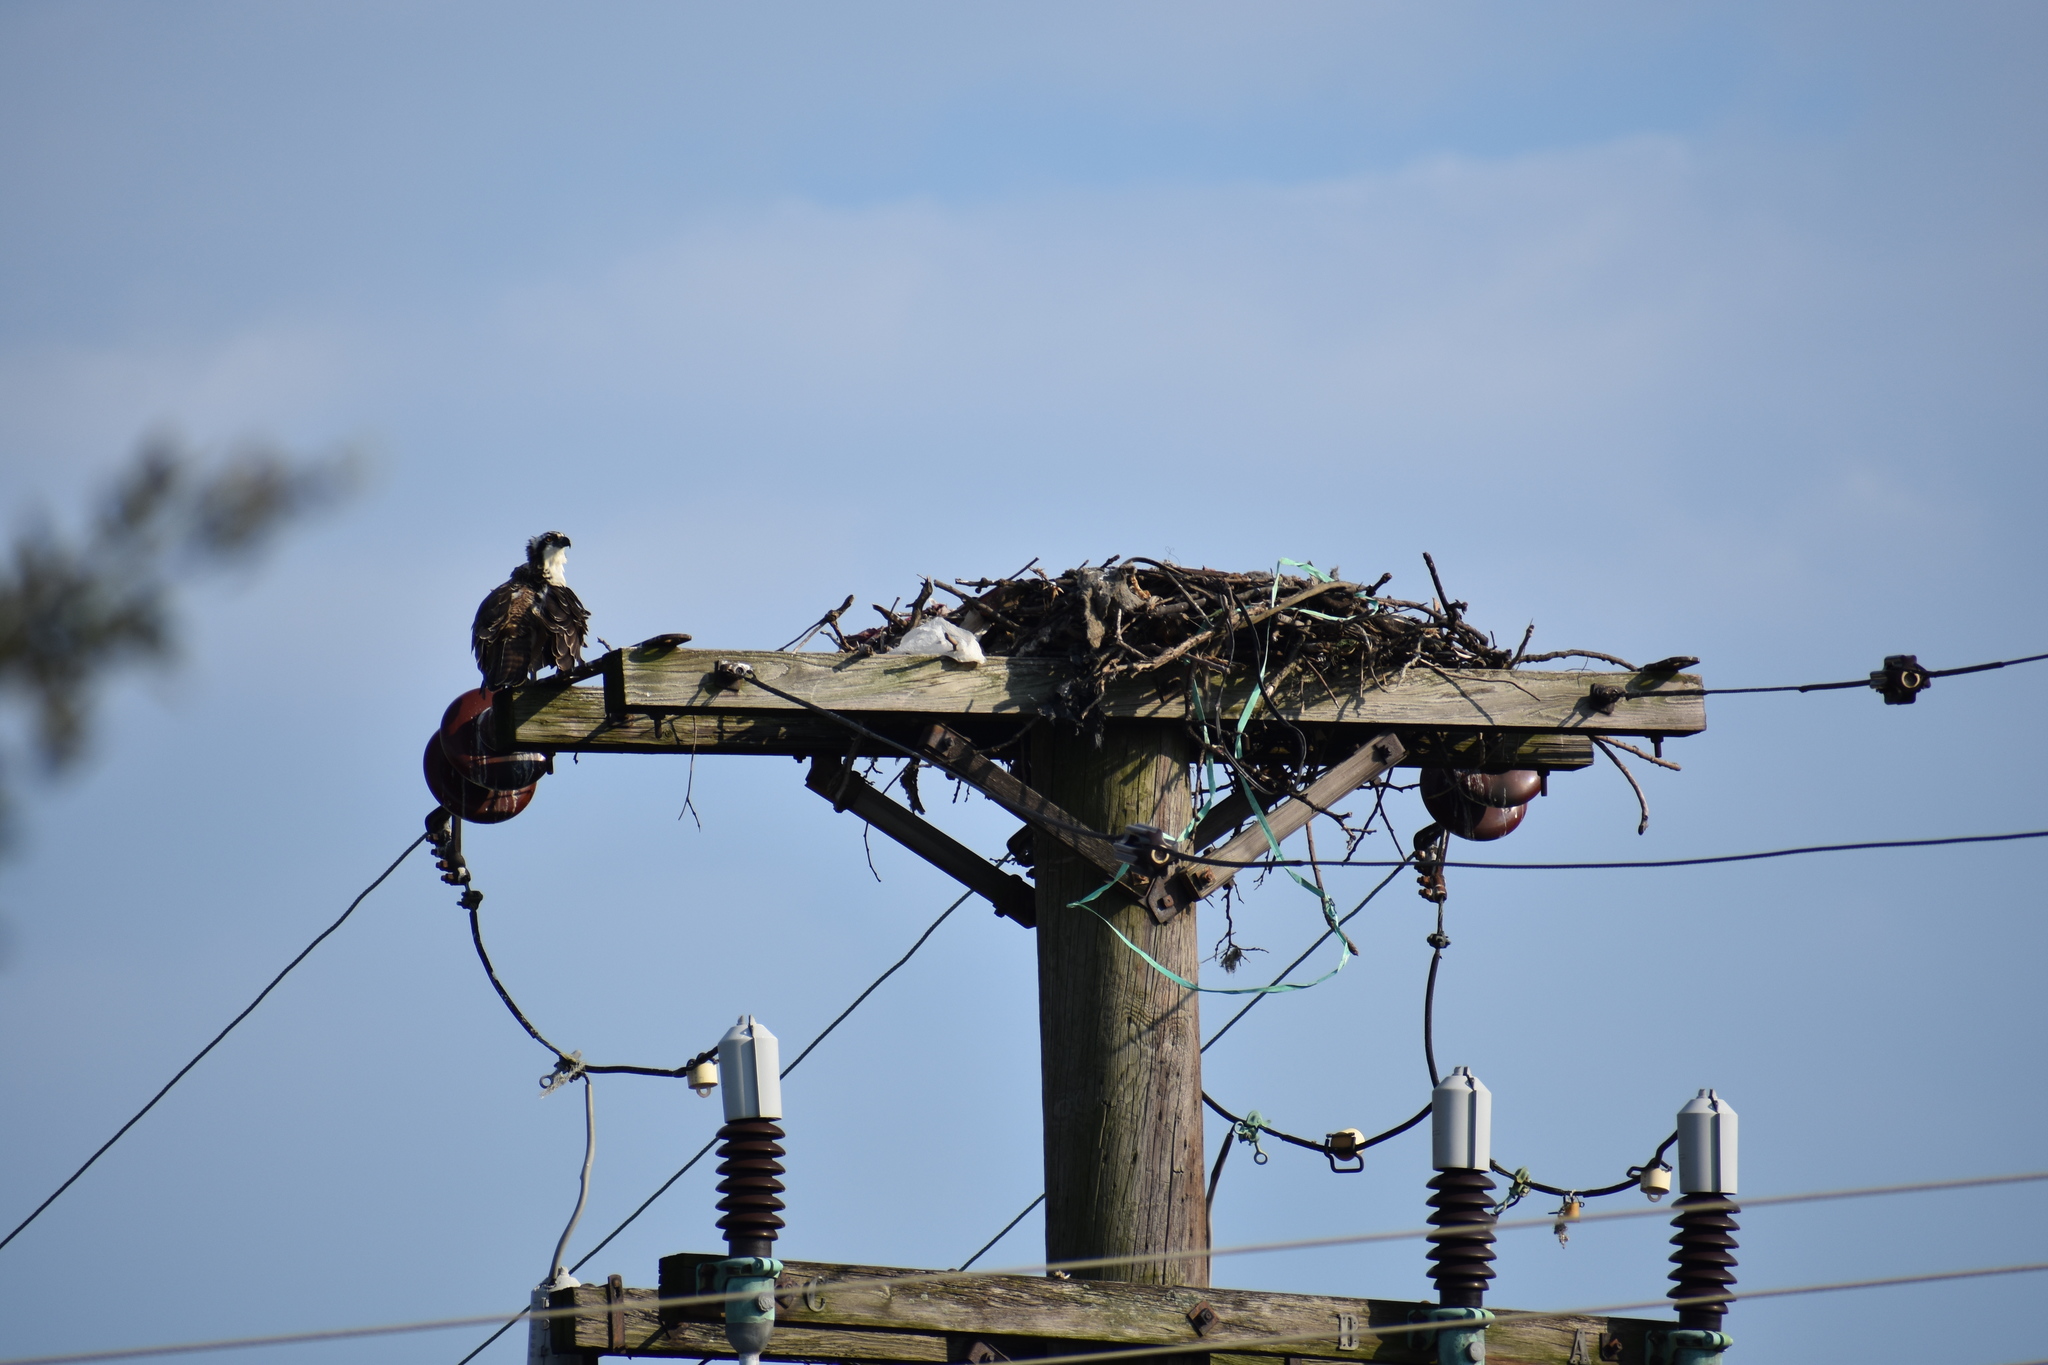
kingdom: Animalia
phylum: Chordata
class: Aves
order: Accipitriformes
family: Pandionidae
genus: Pandion
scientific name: Pandion haliaetus
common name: Osprey
